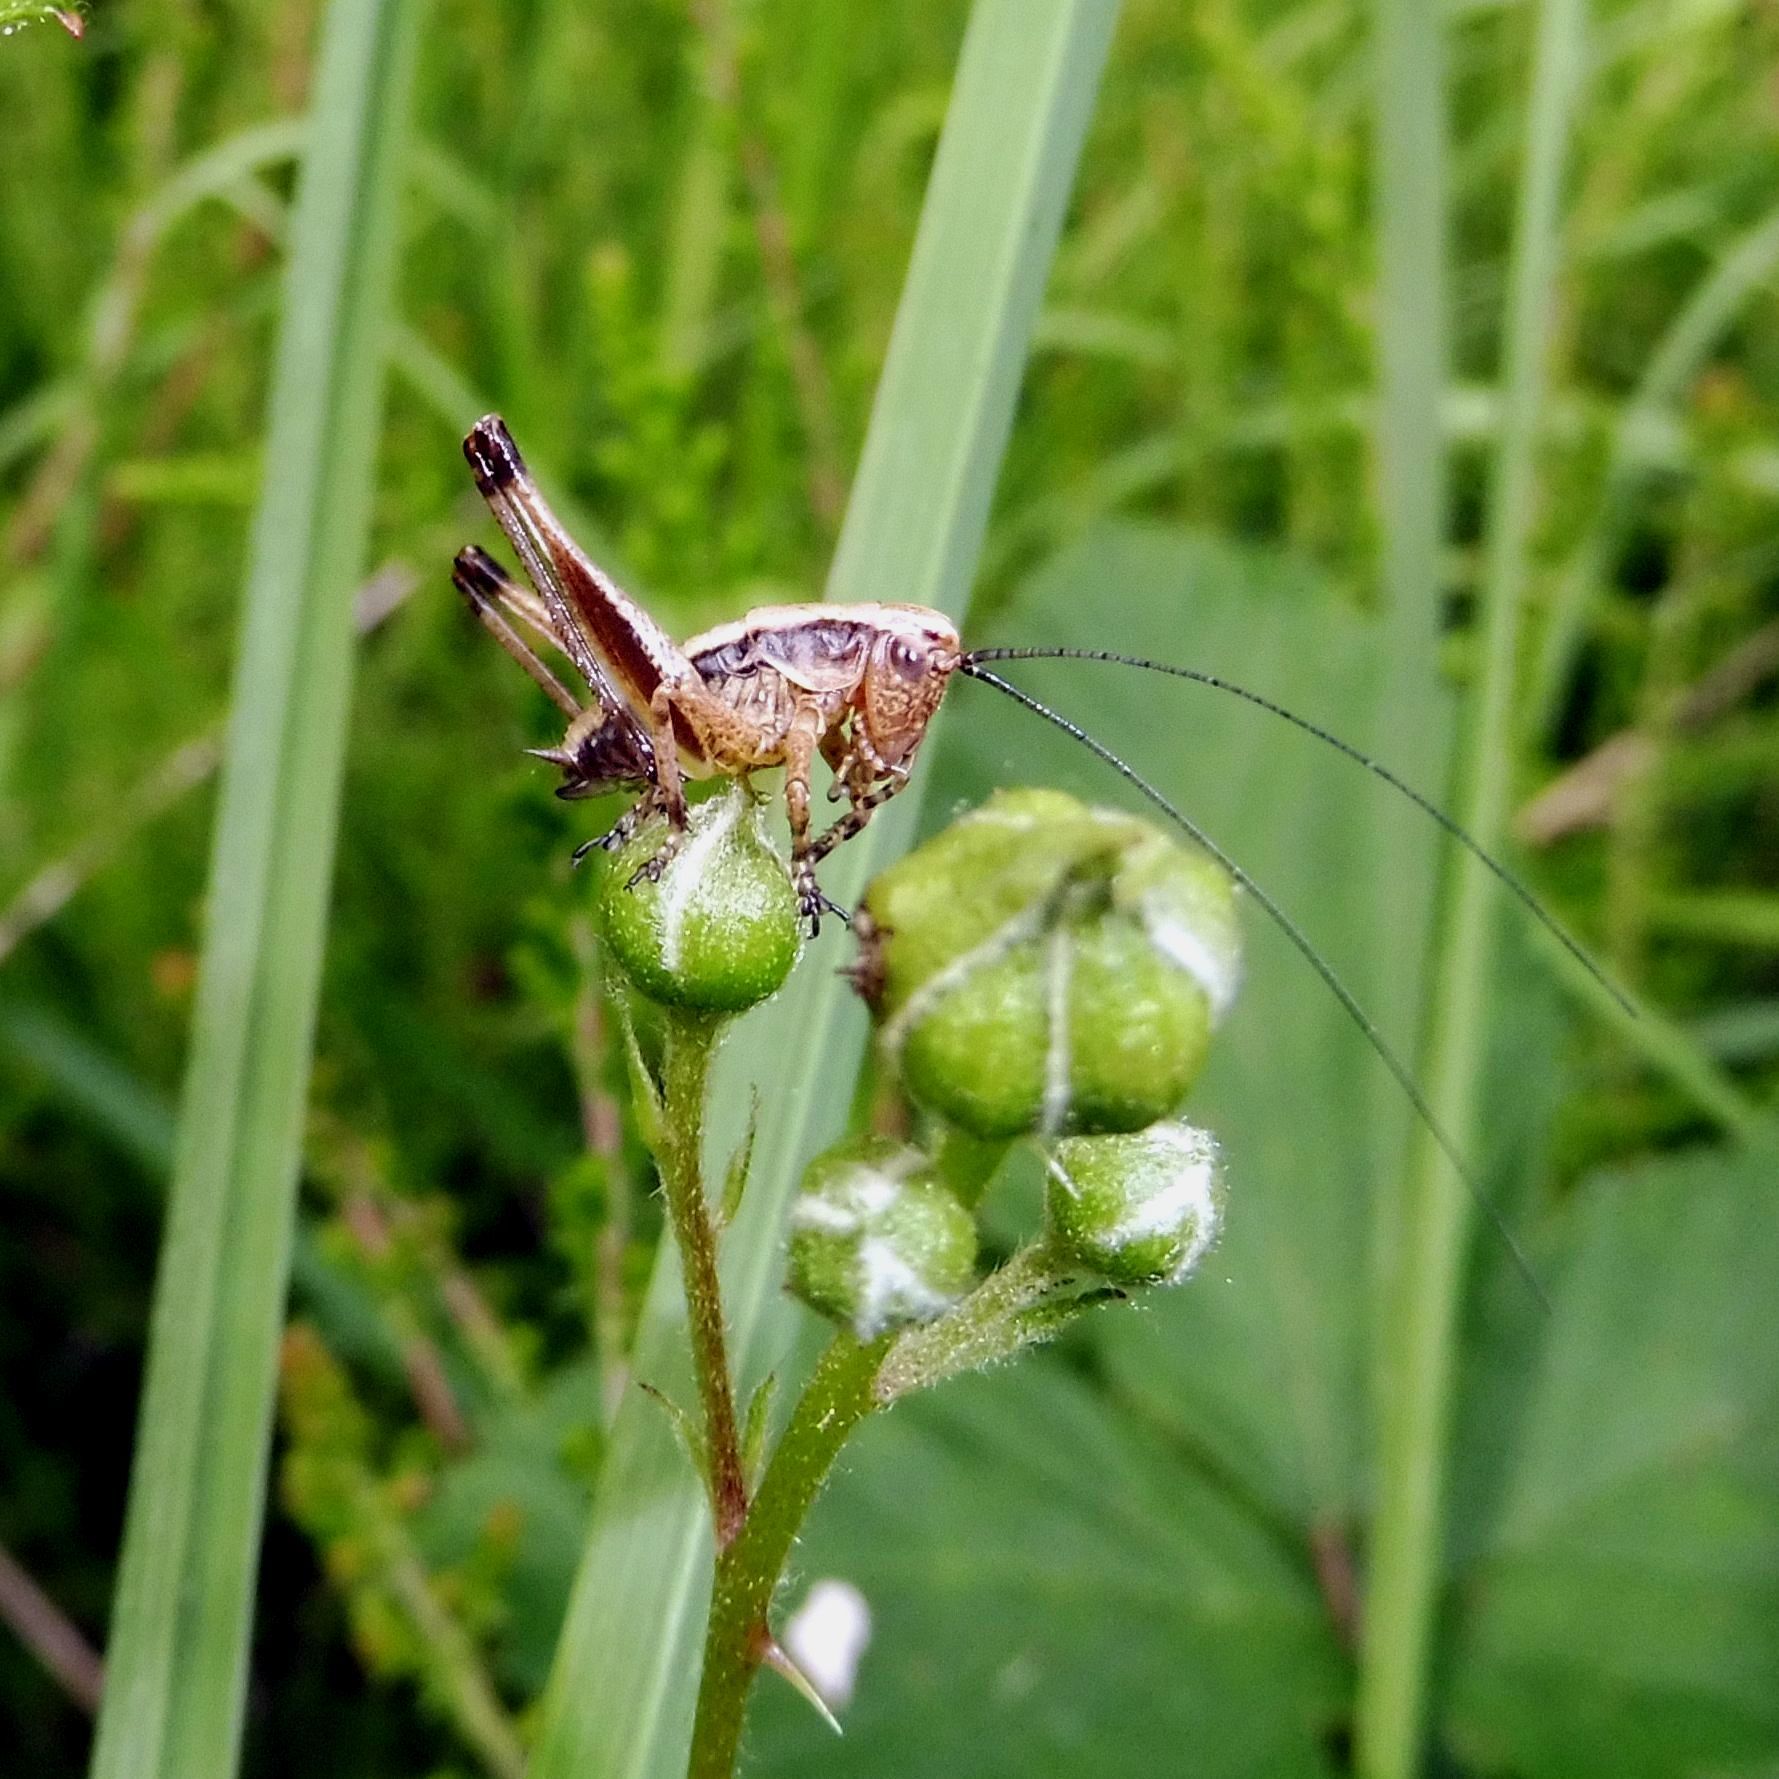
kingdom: Animalia
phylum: Arthropoda
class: Insecta
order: Orthoptera
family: Tettigoniidae
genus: Pholidoptera
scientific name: Pholidoptera griseoaptera
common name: Dark bush-cricket
